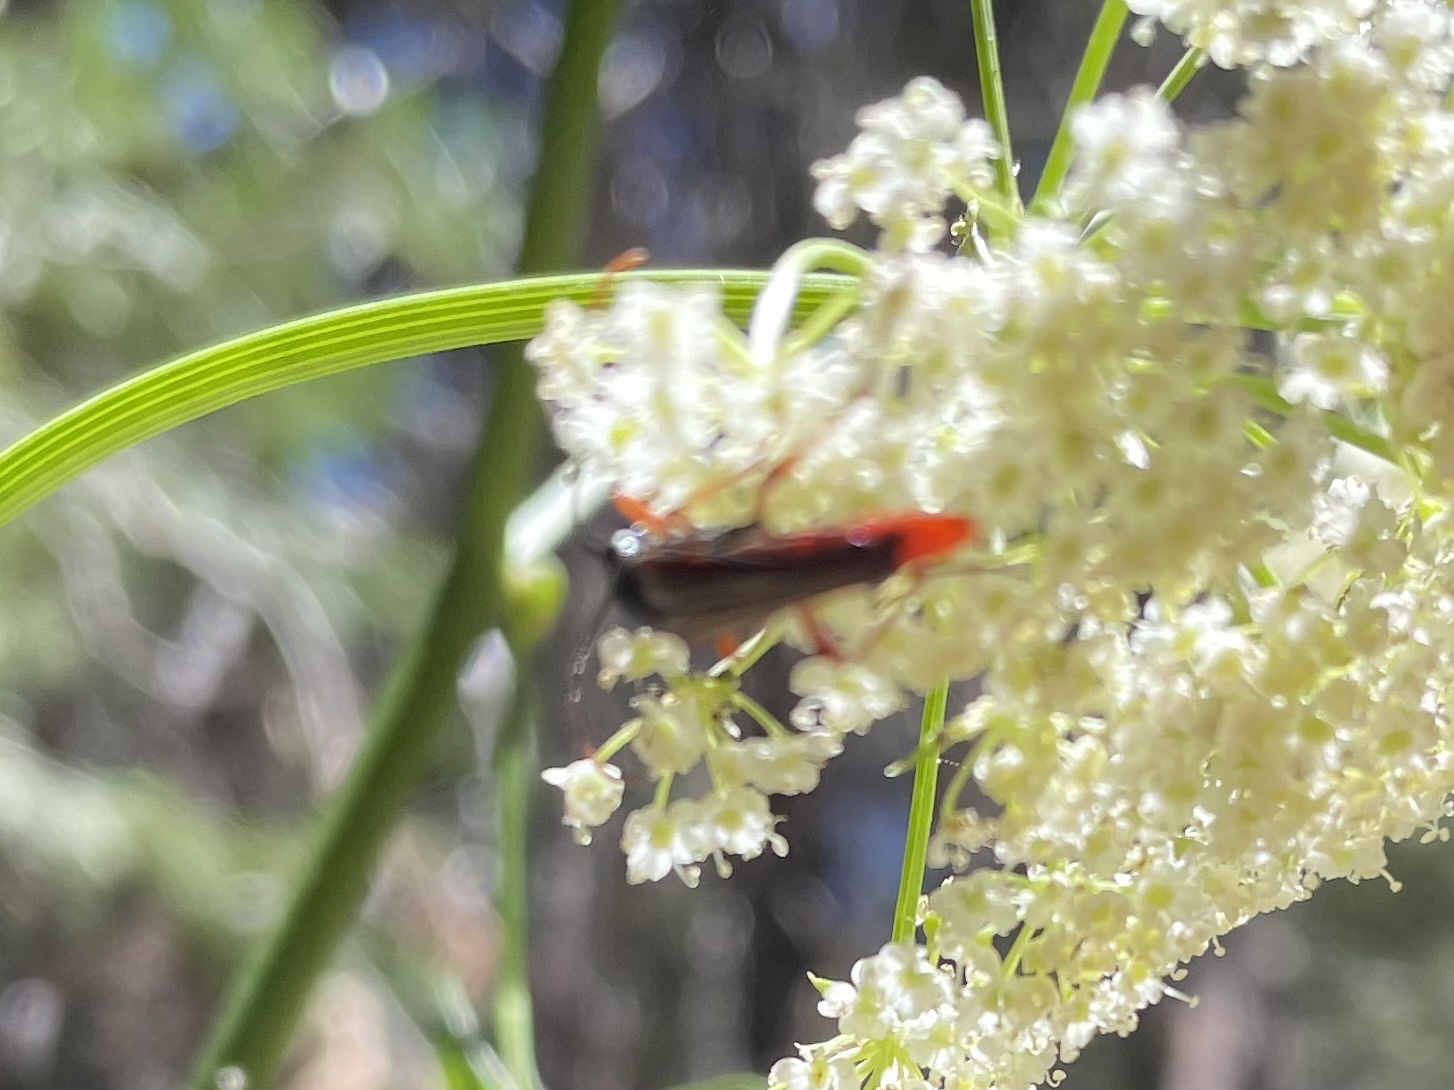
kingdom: Animalia
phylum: Arthropoda
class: Insecta
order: Coleoptera
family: Cerambycidae
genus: Neobellamira
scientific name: Neobellamira delicata
